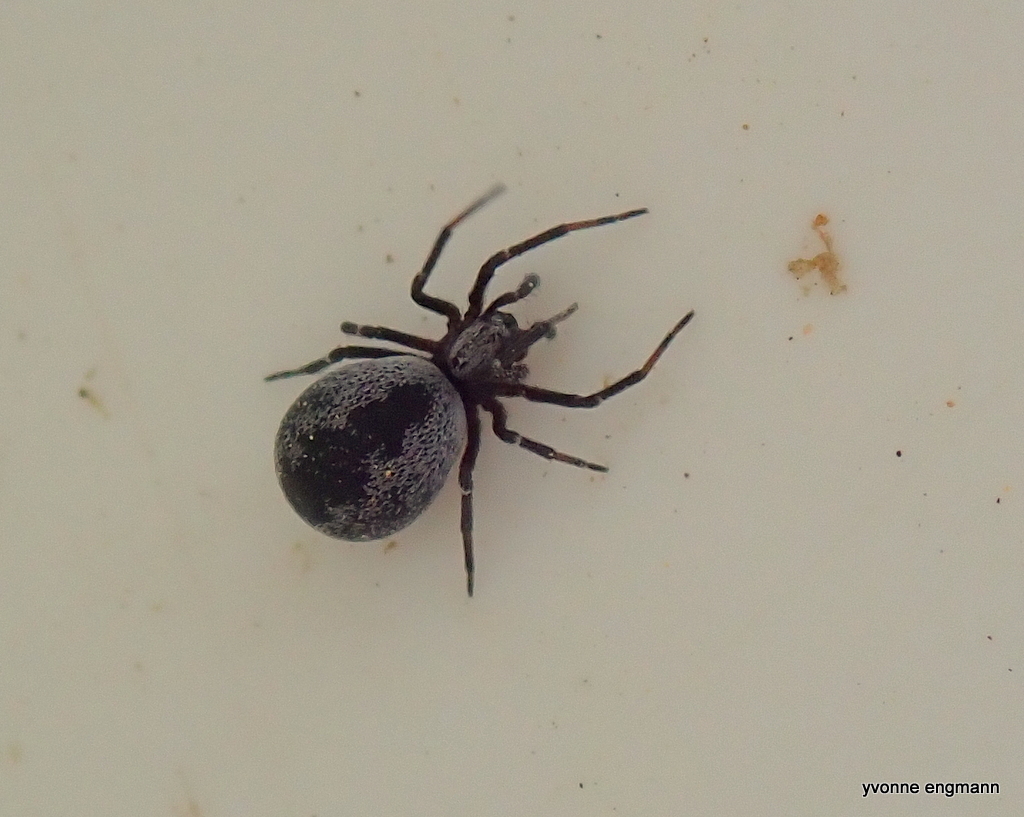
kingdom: Animalia
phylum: Arthropoda
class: Arachnida
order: Araneae
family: Dictynidae
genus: Brigittea
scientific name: Brigittea latens
